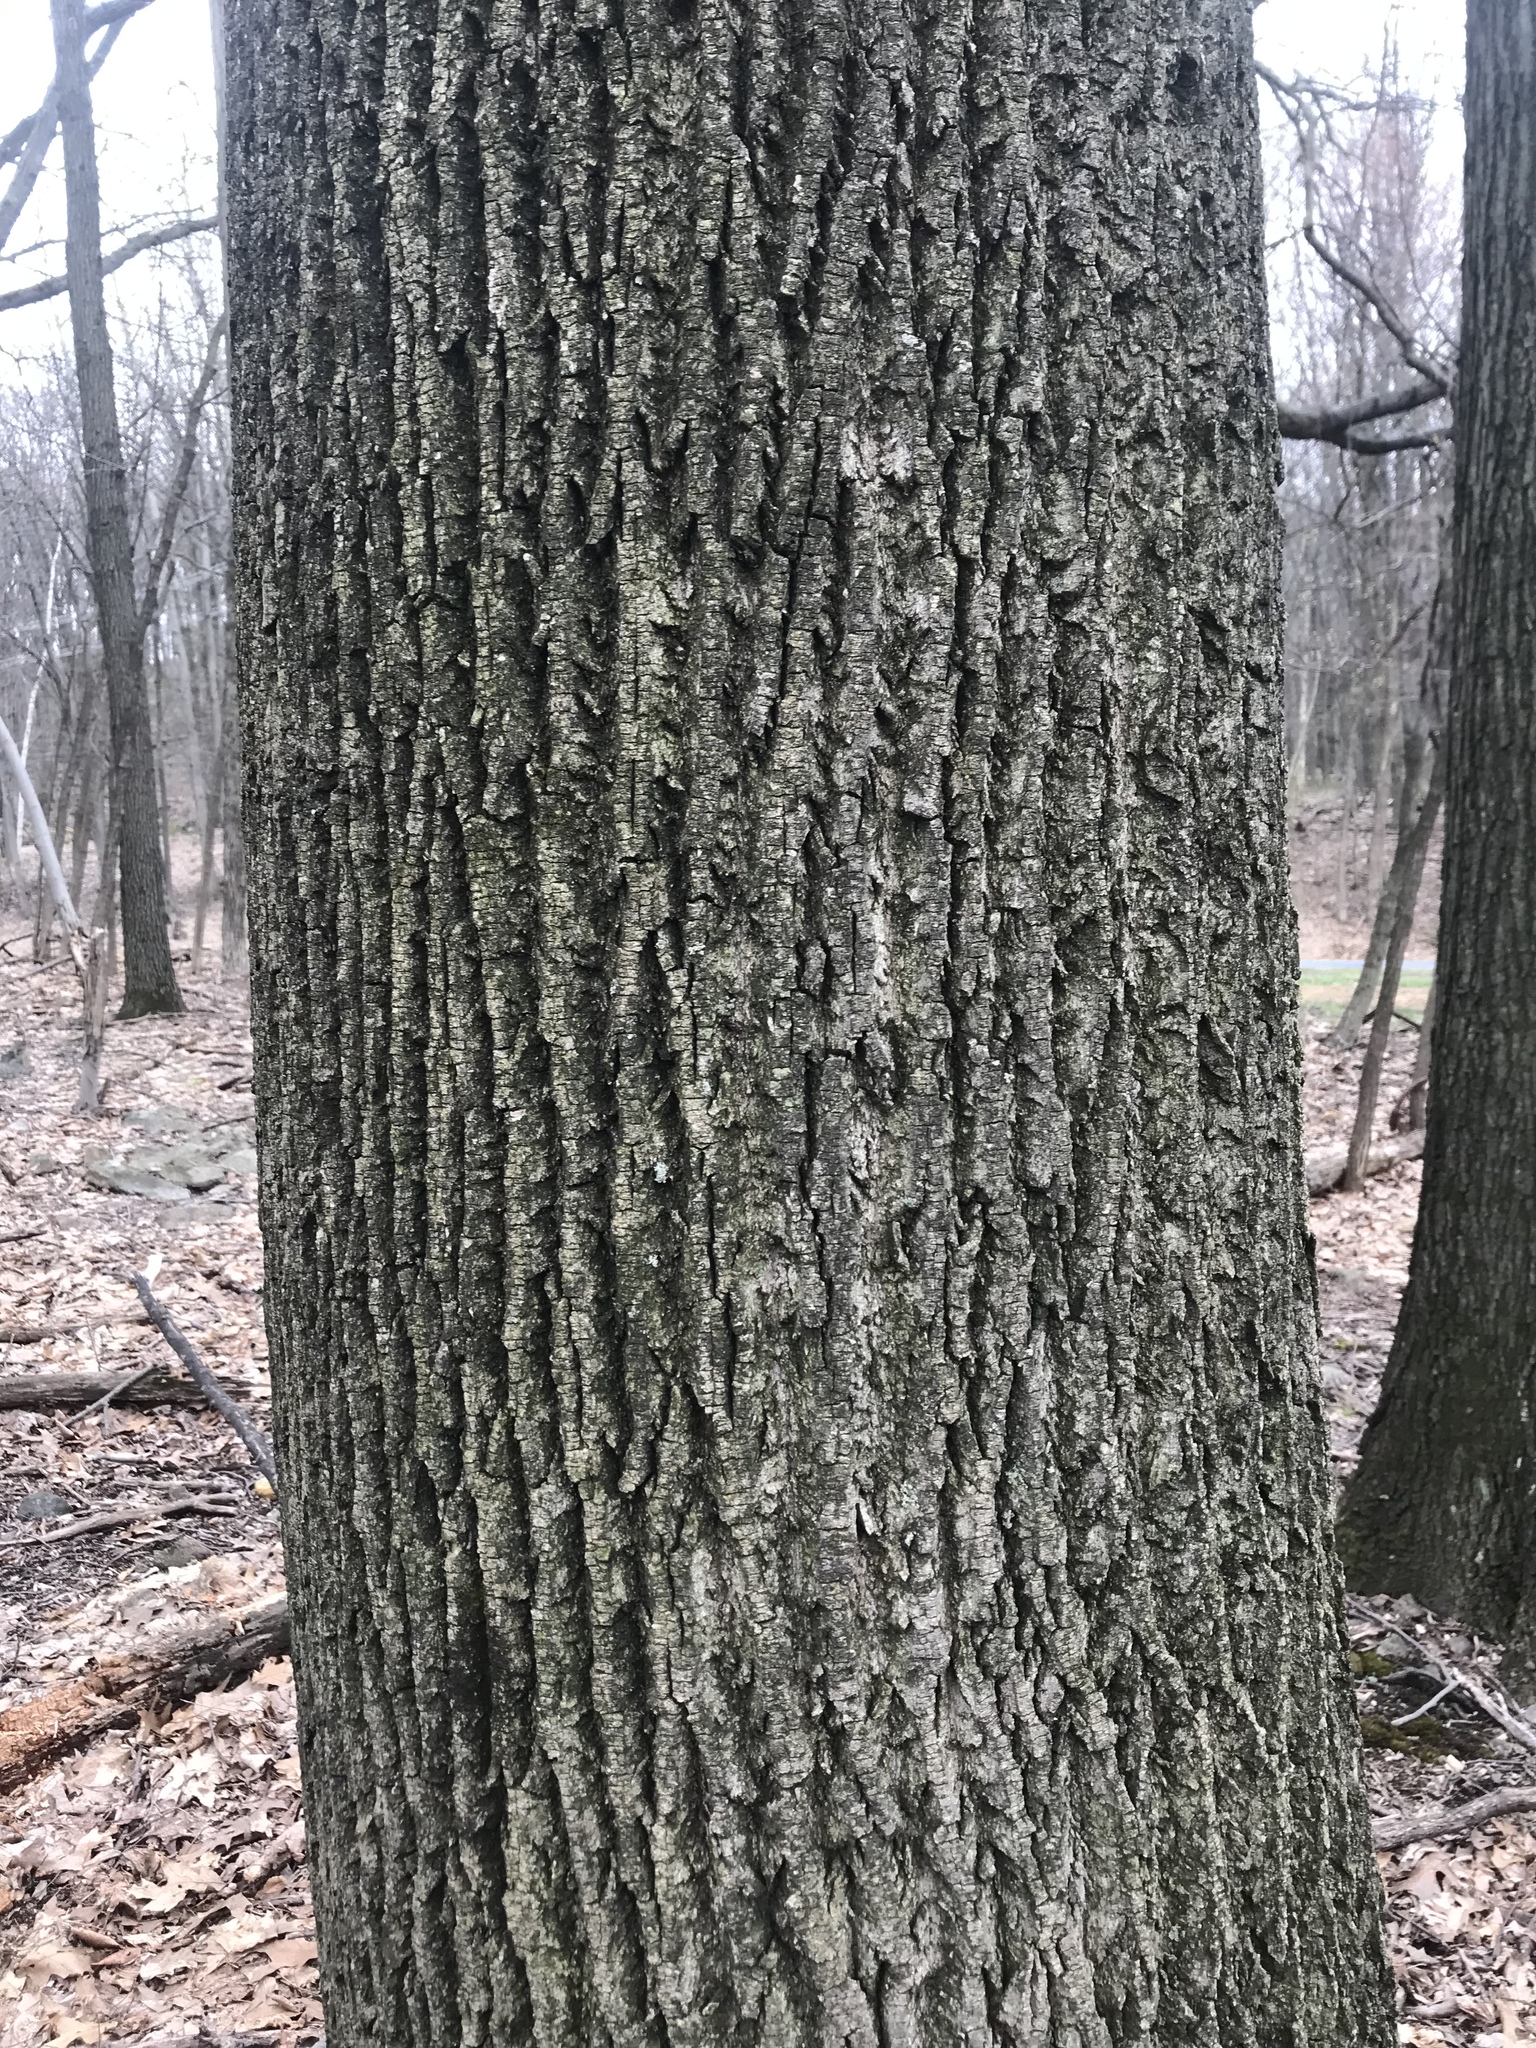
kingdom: Plantae
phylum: Tracheophyta
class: Magnoliopsida
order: Magnoliales
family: Magnoliaceae
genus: Liriodendron
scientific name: Liriodendron tulipifera
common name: Tulip tree
